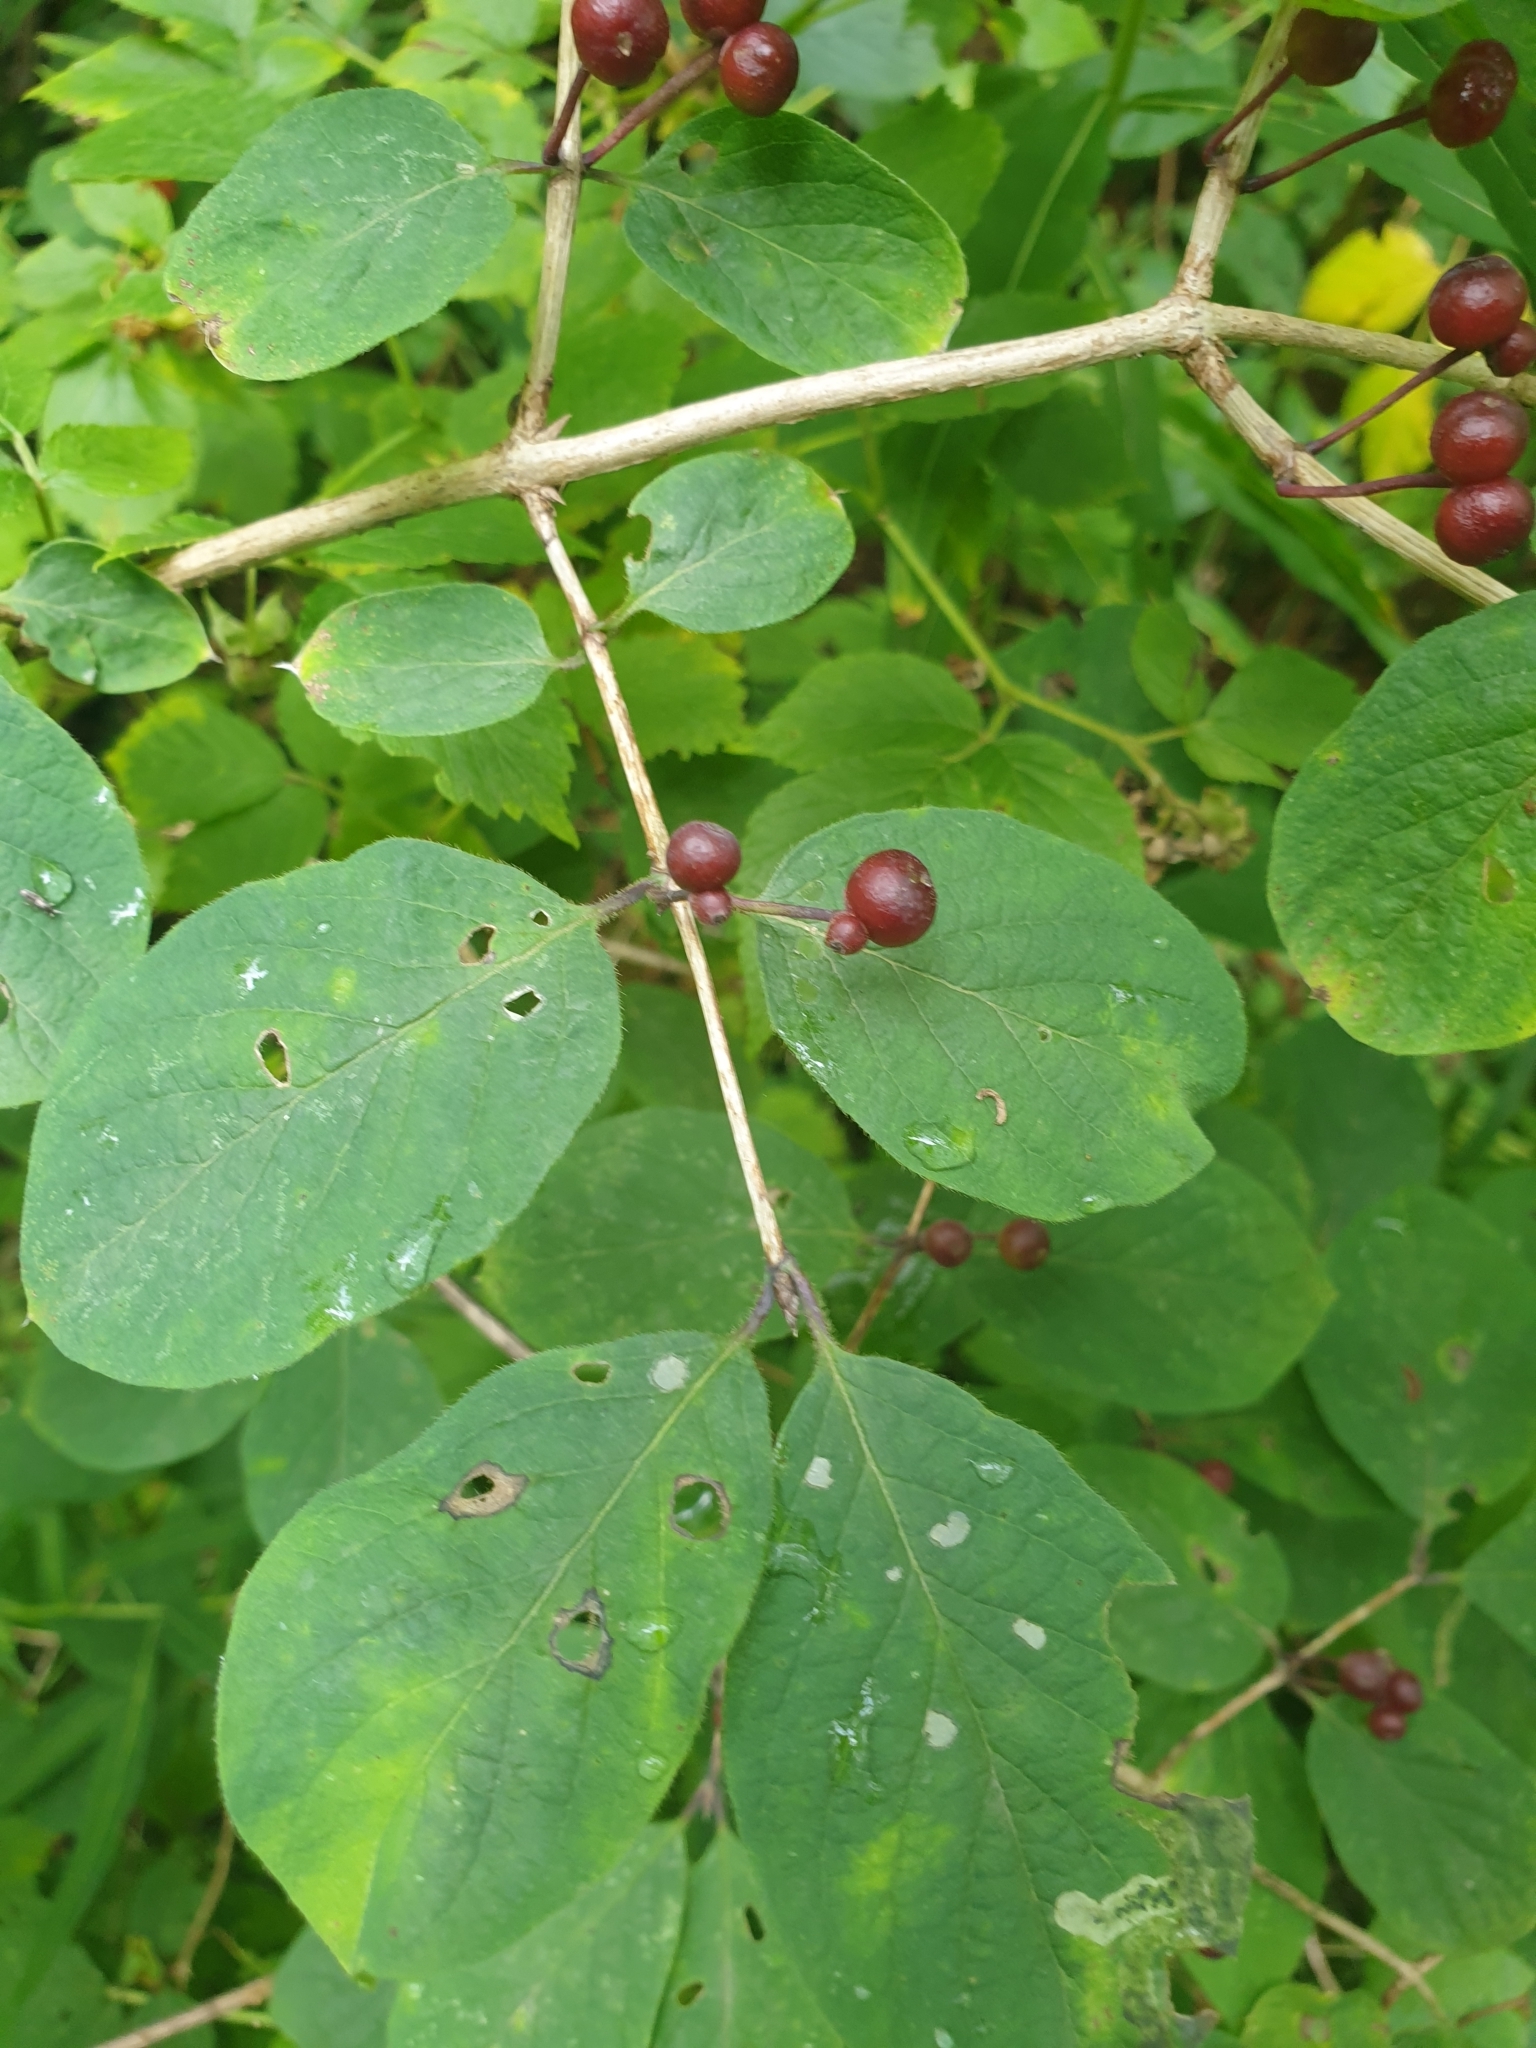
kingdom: Plantae
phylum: Tracheophyta
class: Magnoliopsida
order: Dipsacales
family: Caprifoliaceae
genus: Lonicera
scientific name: Lonicera xylosteum
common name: Fly honeysuckle
